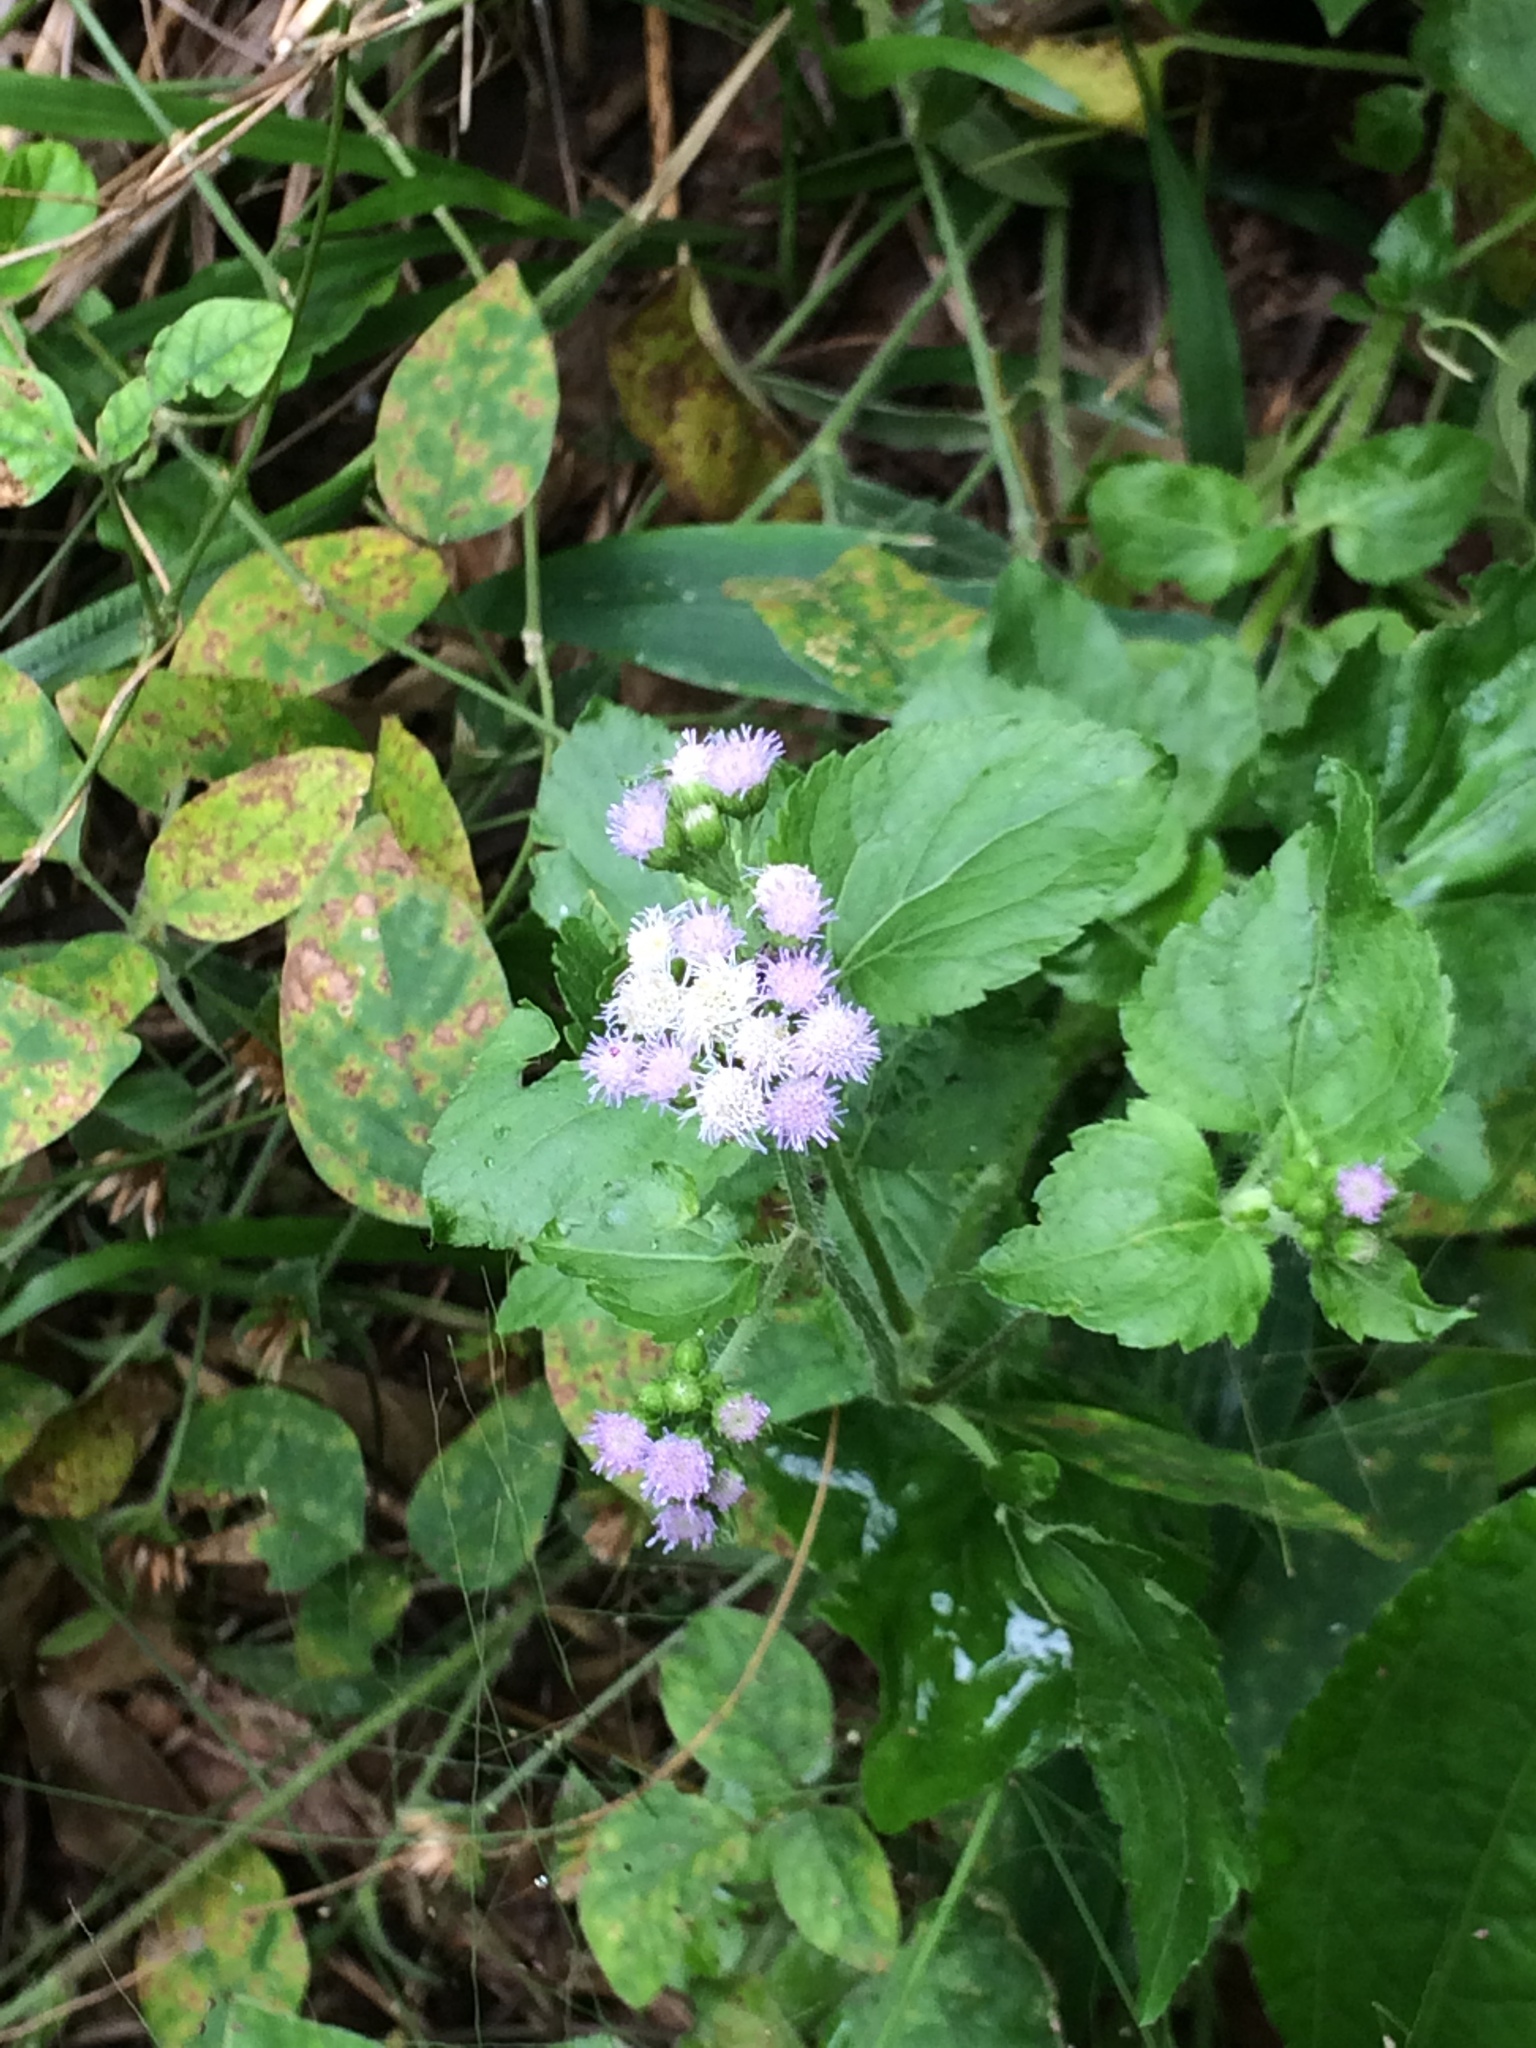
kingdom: Plantae
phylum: Tracheophyta
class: Magnoliopsida
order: Asterales
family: Asteraceae
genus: Ageratum
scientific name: Ageratum conyzoides
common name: Tropical whiteweed
